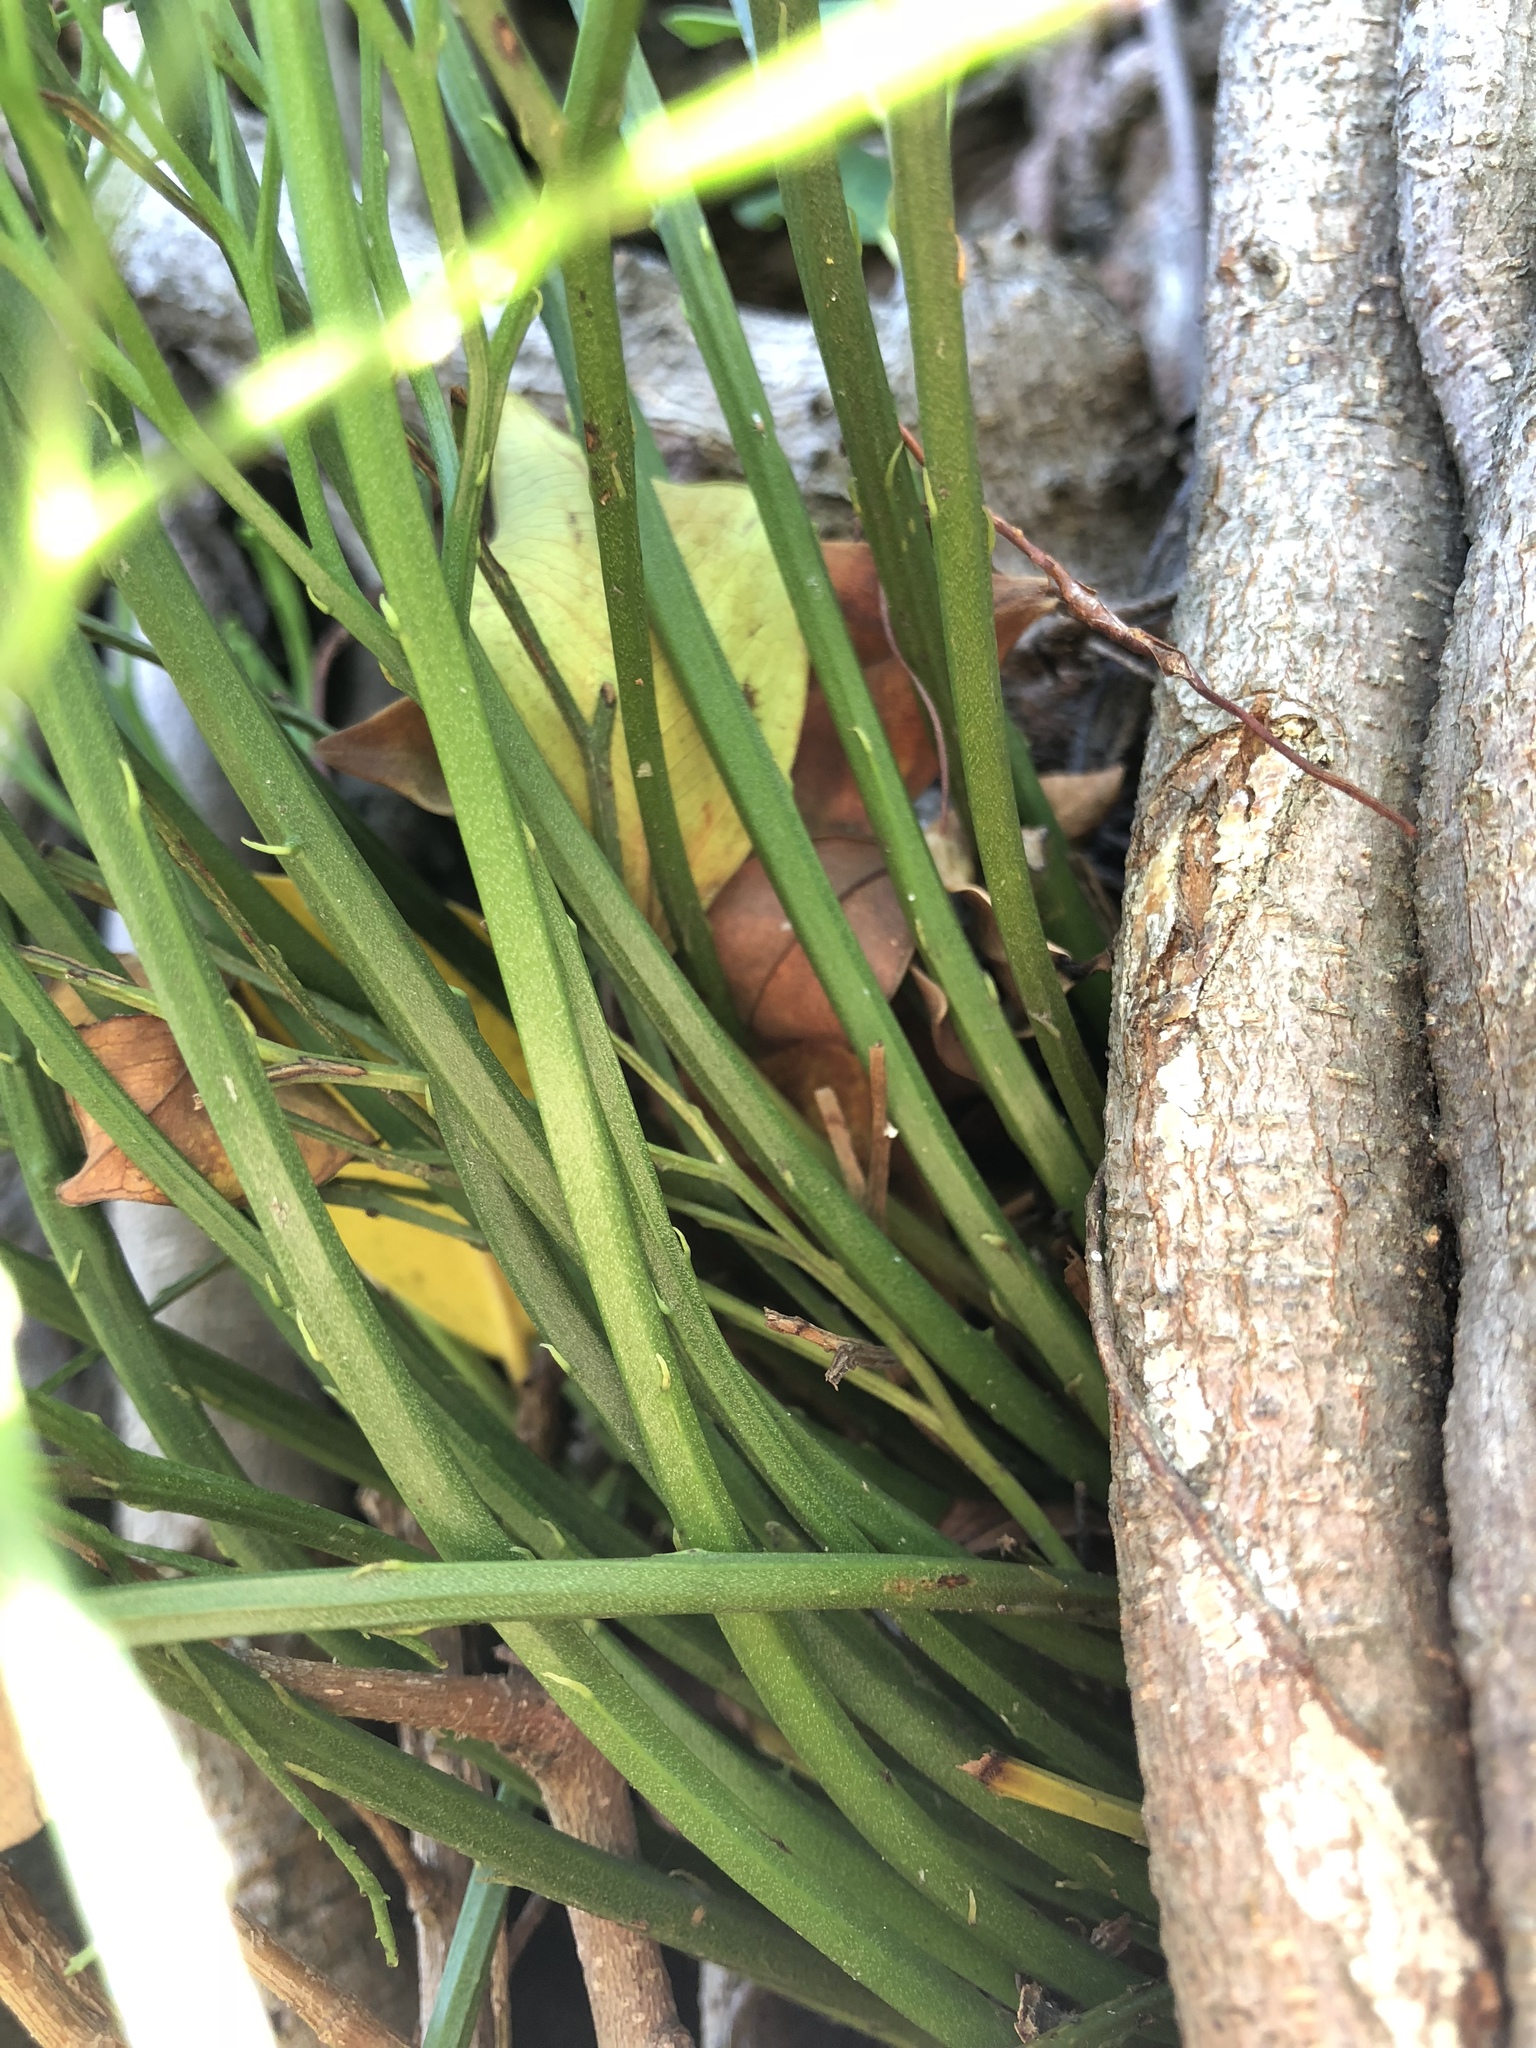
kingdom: Plantae
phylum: Tracheophyta
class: Polypodiopsida
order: Psilotales
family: Psilotaceae
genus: Psilotum
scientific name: Psilotum nudum
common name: Skeleton fork fern
